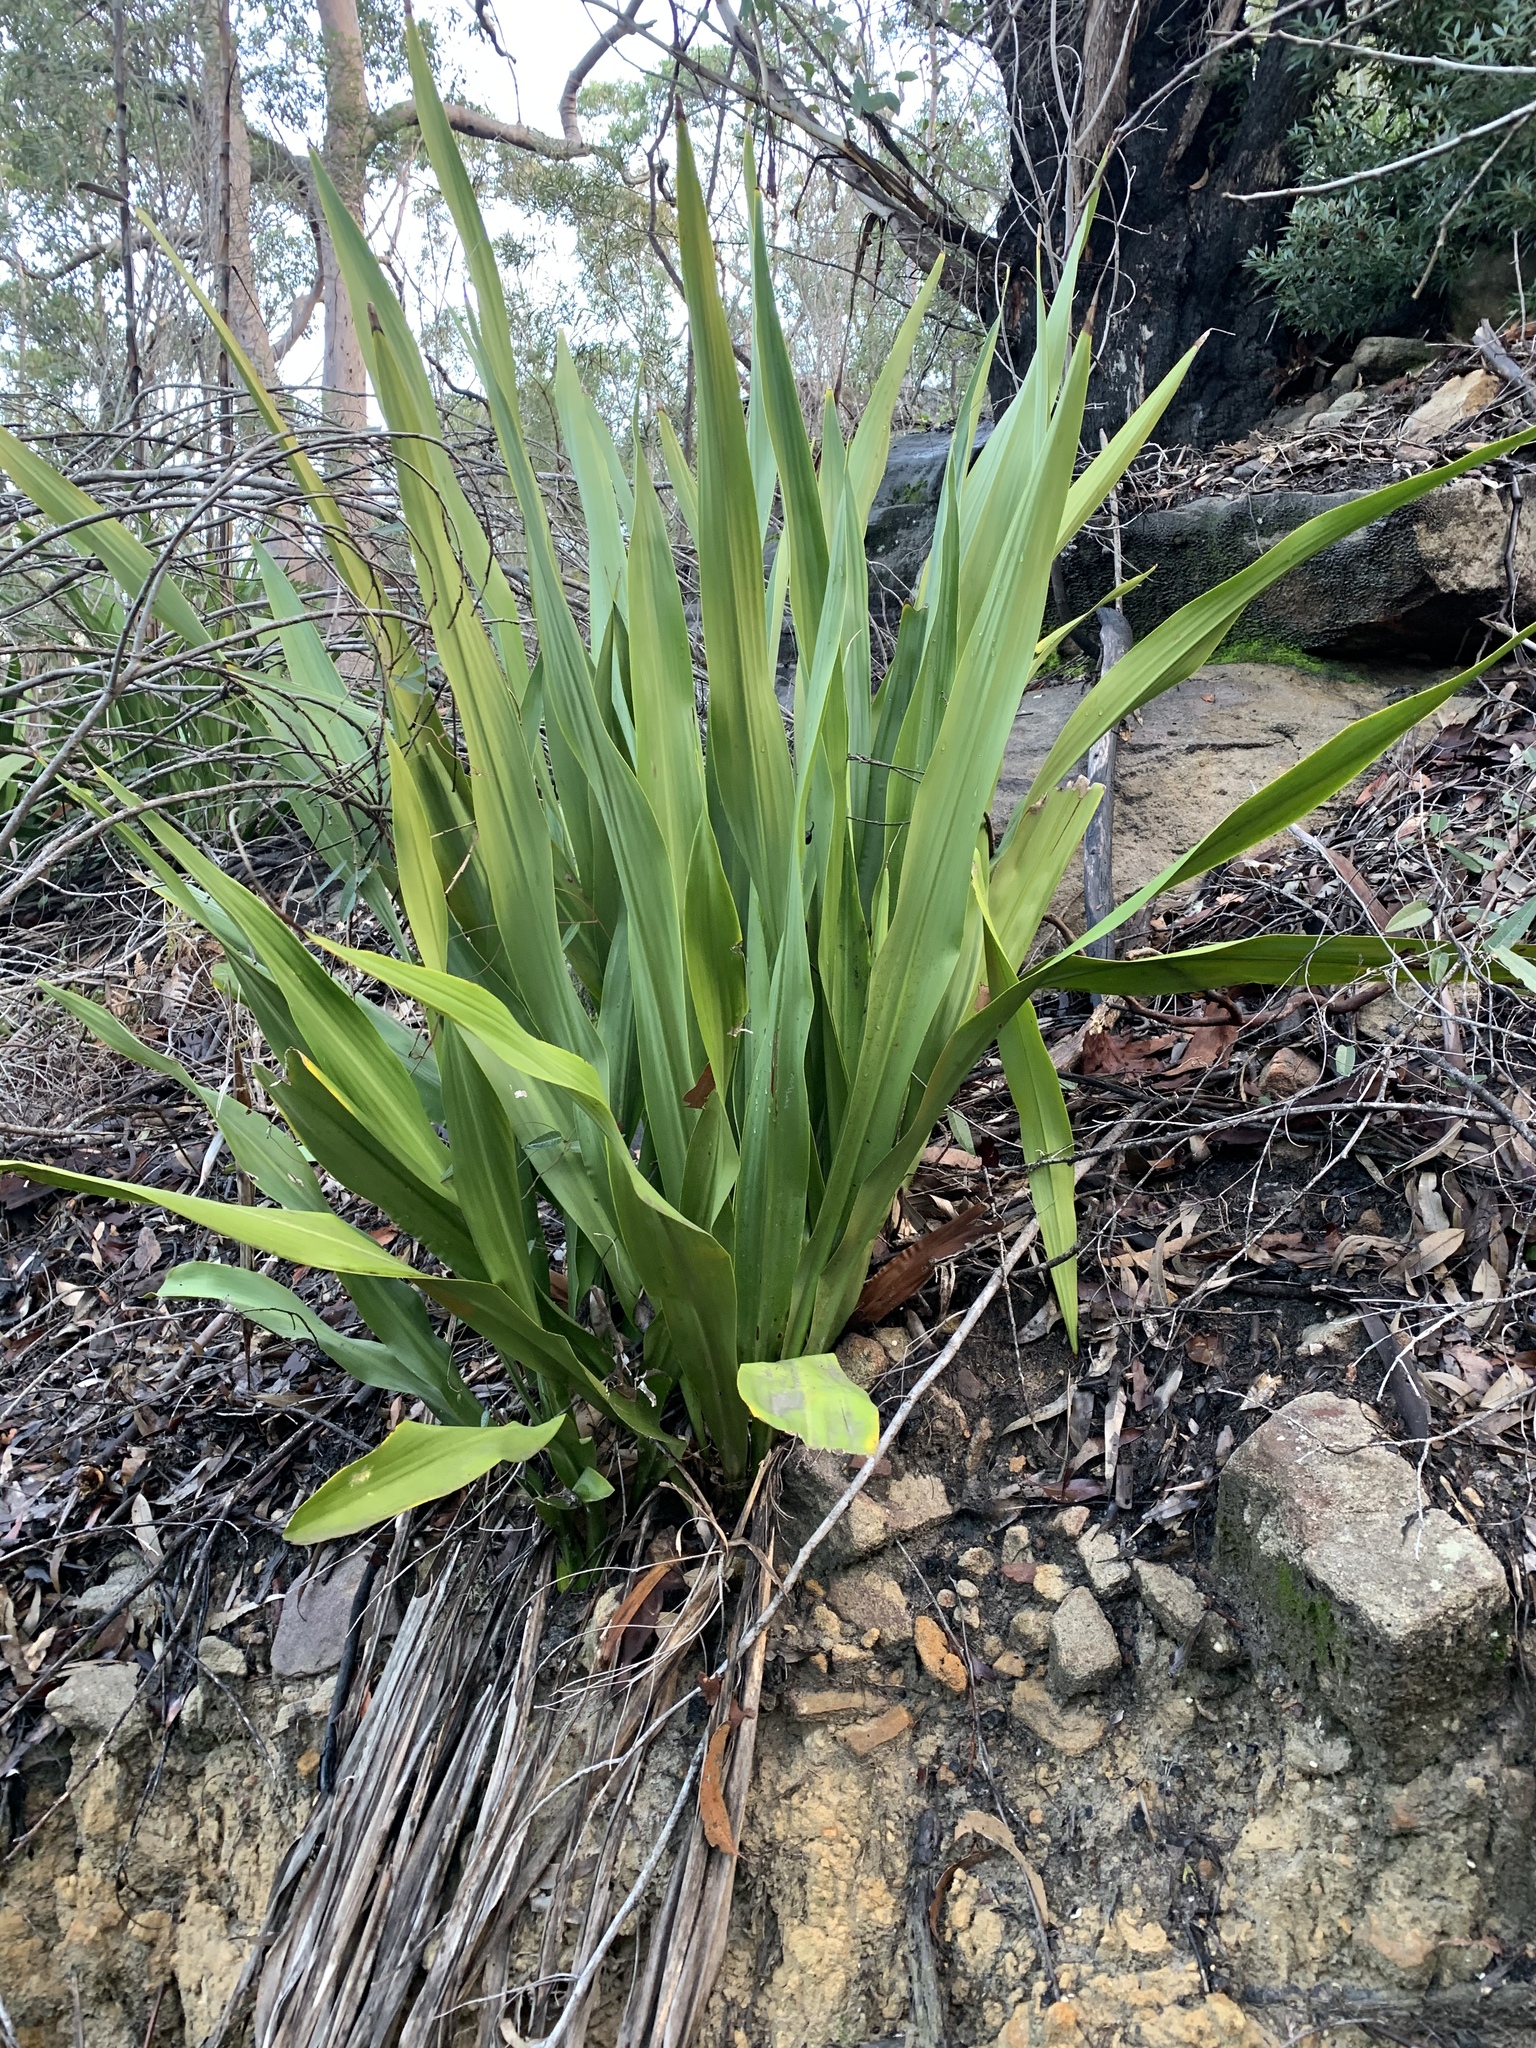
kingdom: Plantae
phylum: Tracheophyta
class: Liliopsida
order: Asparagales
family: Doryanthaceae
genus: Doryanthes
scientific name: Doryanthes excelsa
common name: Giant-lily
